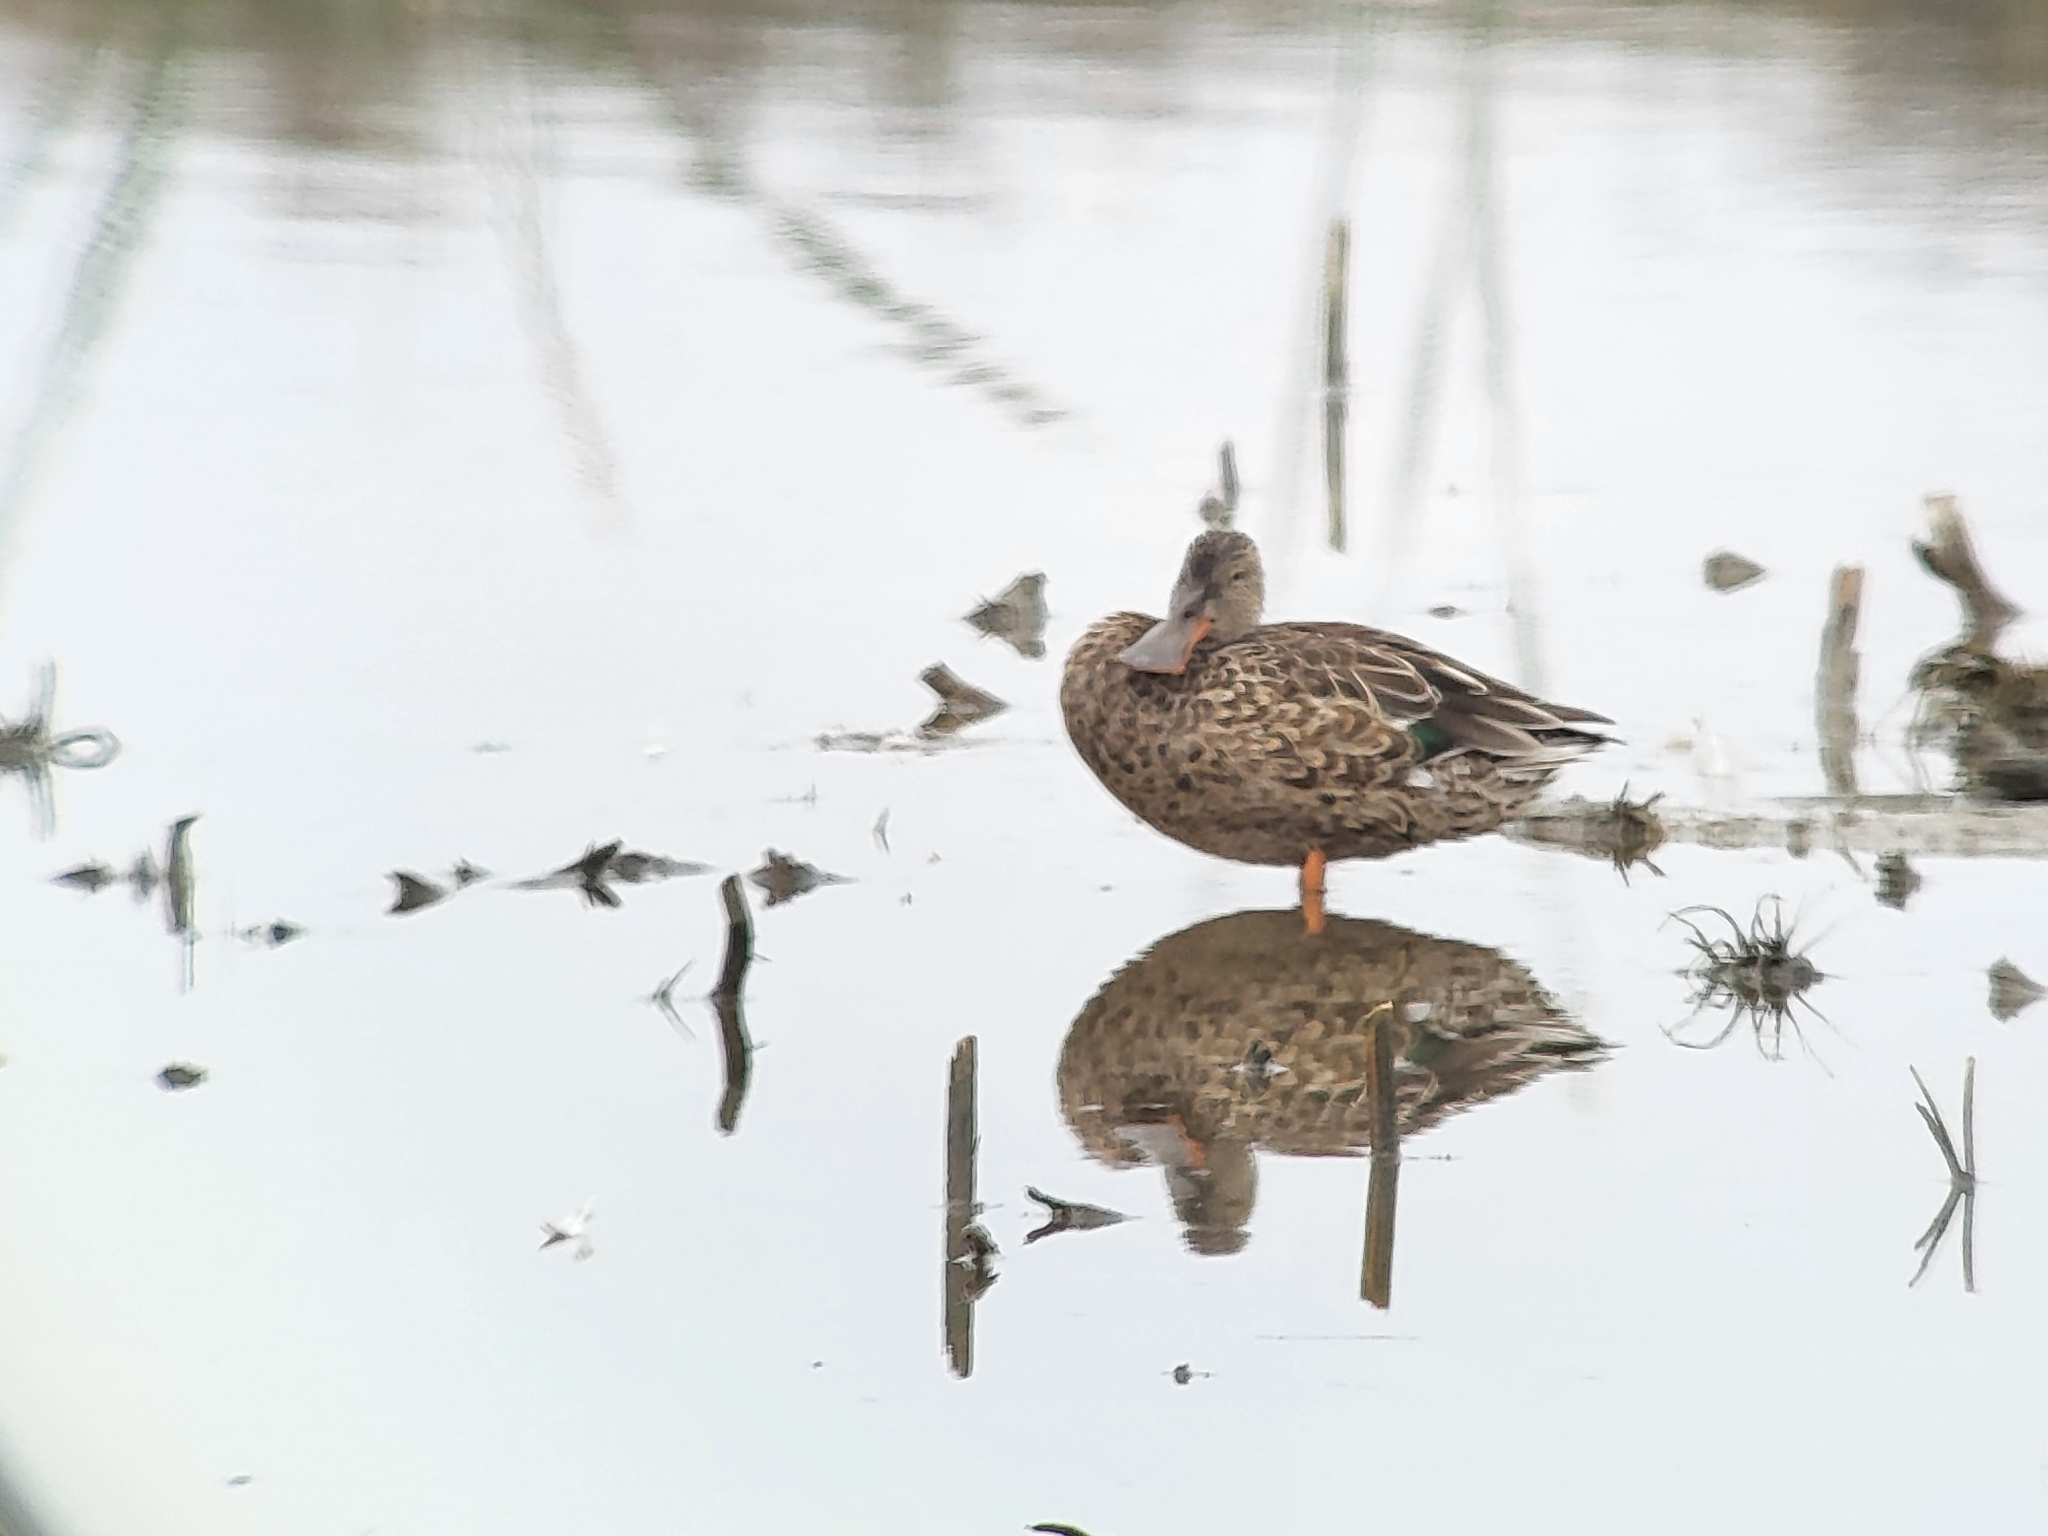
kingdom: Animalia
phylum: Chordata
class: Aves
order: Anseriformes
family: Anatidae
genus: Spatula
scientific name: Spatula clypeata
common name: Northern shoveler
